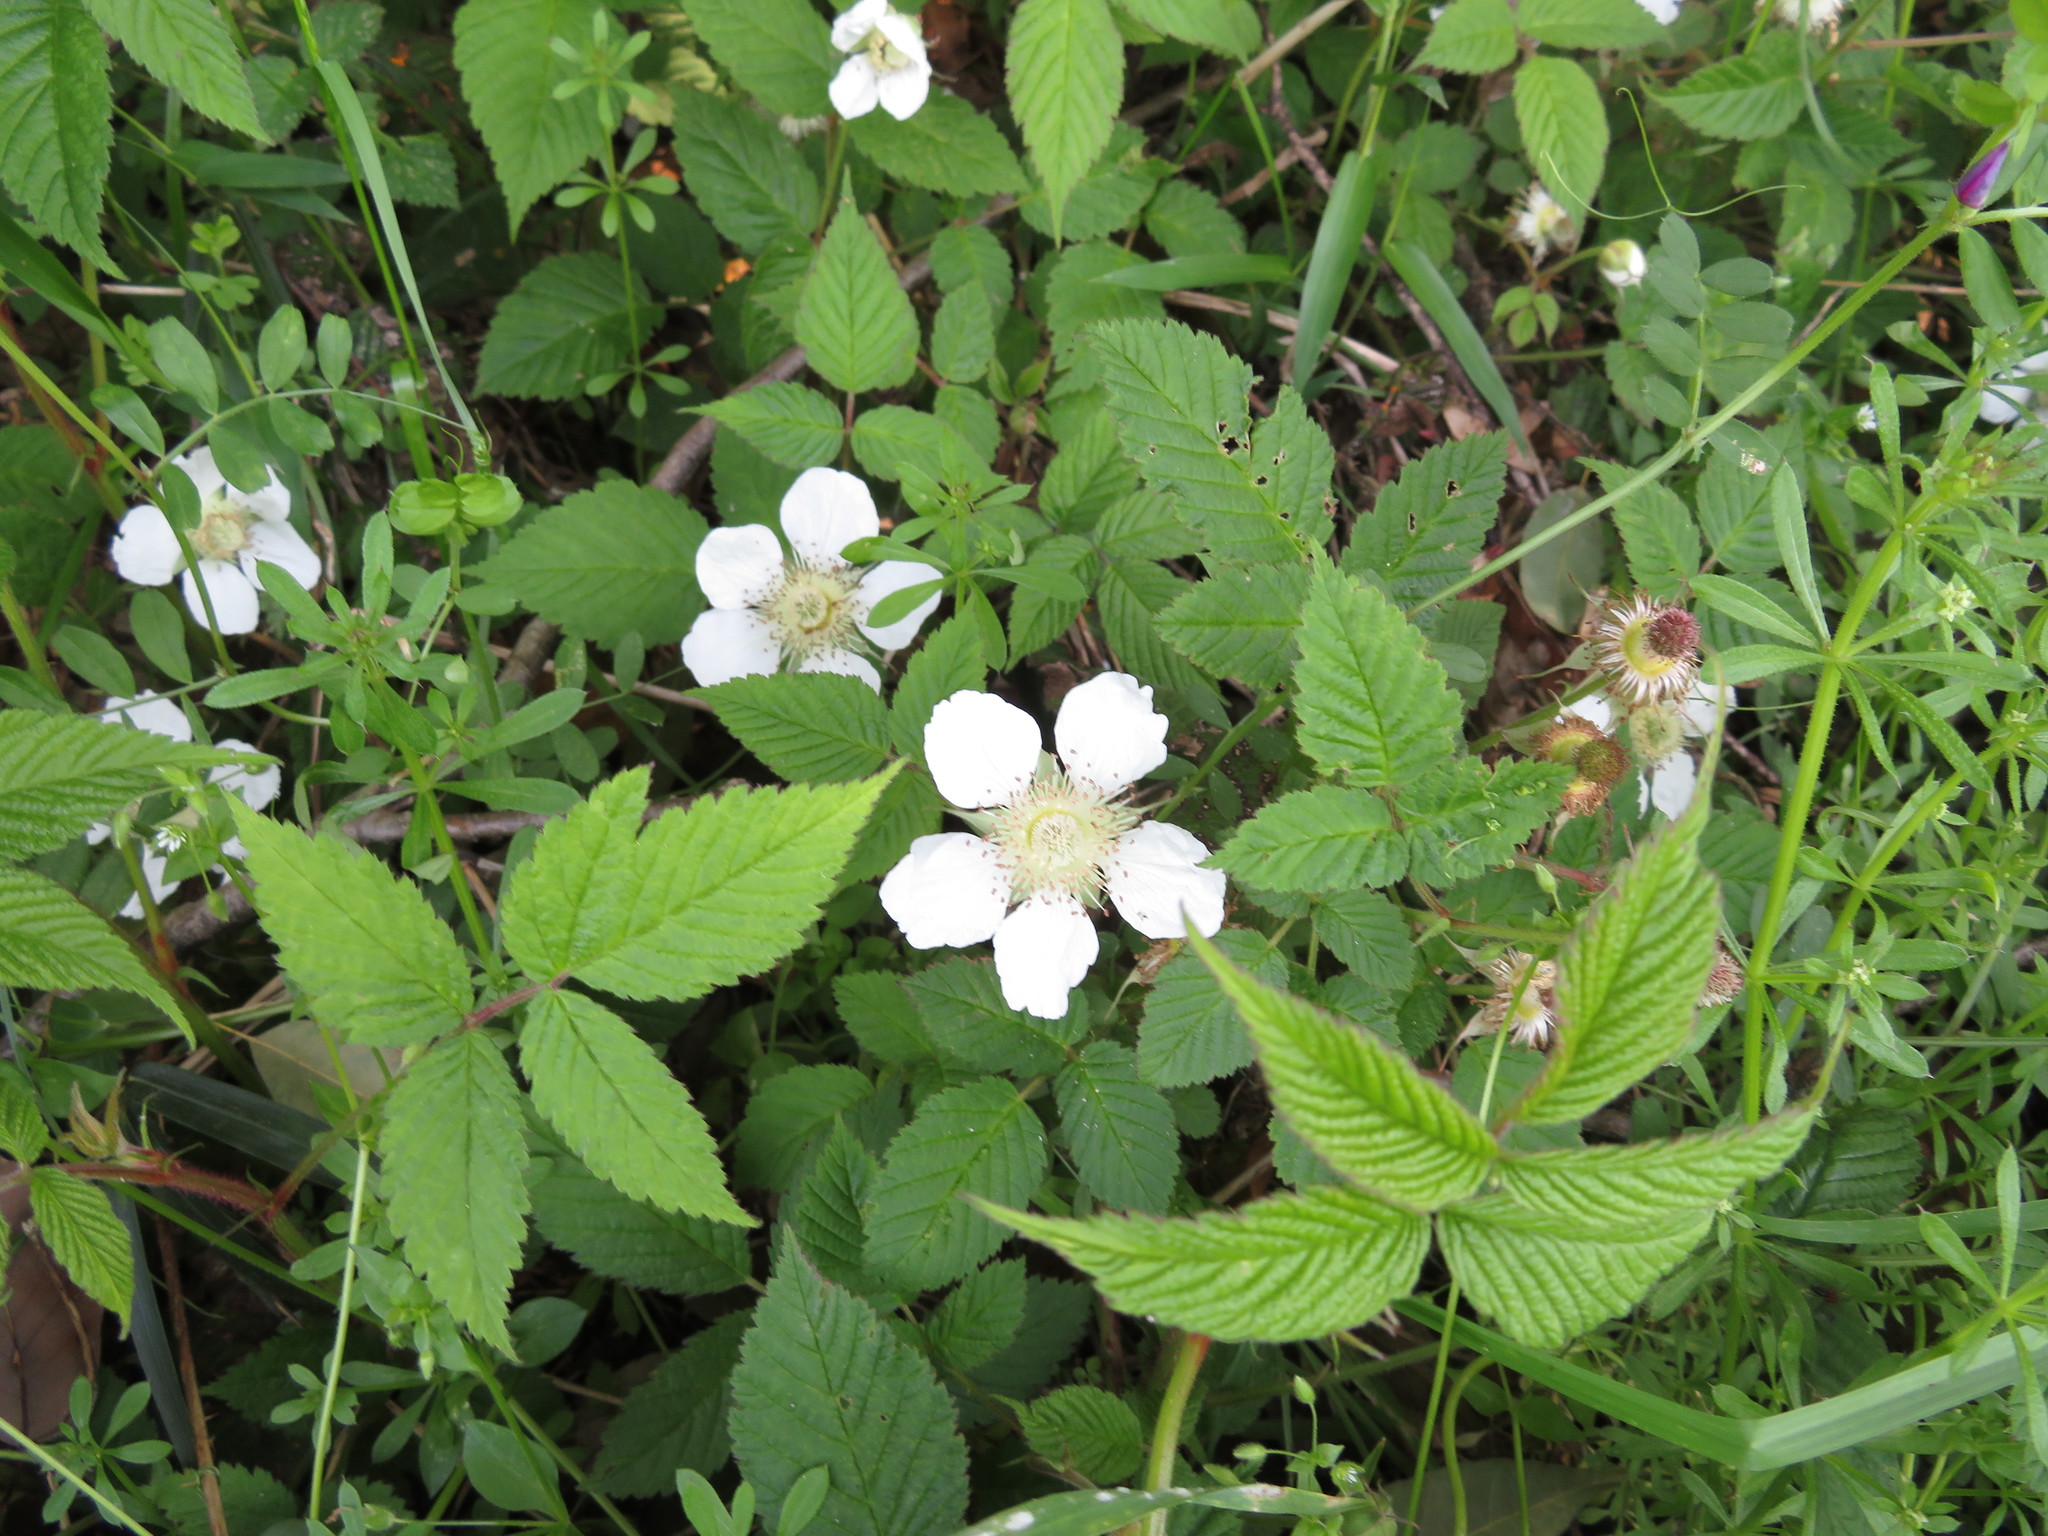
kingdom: Plantae
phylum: Tracheophyta
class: Magnoliopsida
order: Rosales
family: Rosaceae
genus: Rubus
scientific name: Rubus hirsutus
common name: Hirsute raspberry
